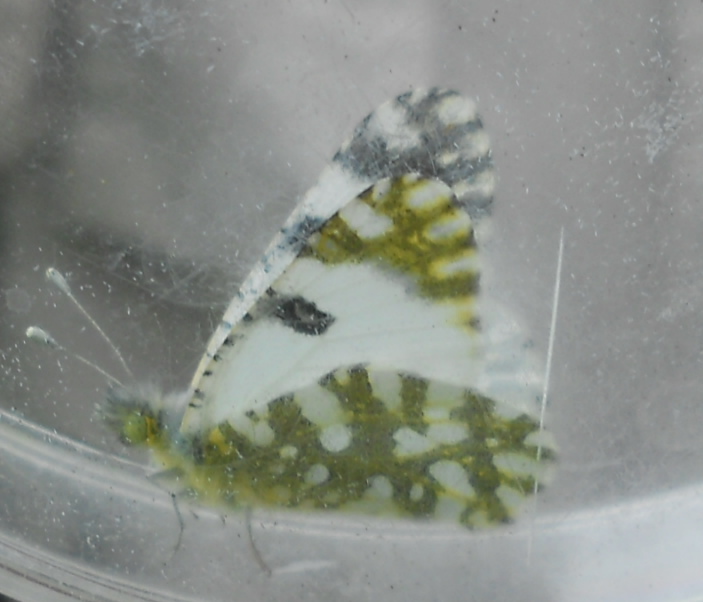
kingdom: Animalia
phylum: Arthropoda
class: Insecta
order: Lepidoptera
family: Pieridae
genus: Euchloe
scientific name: Euchloe ausonia
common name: Eastern dappled white
